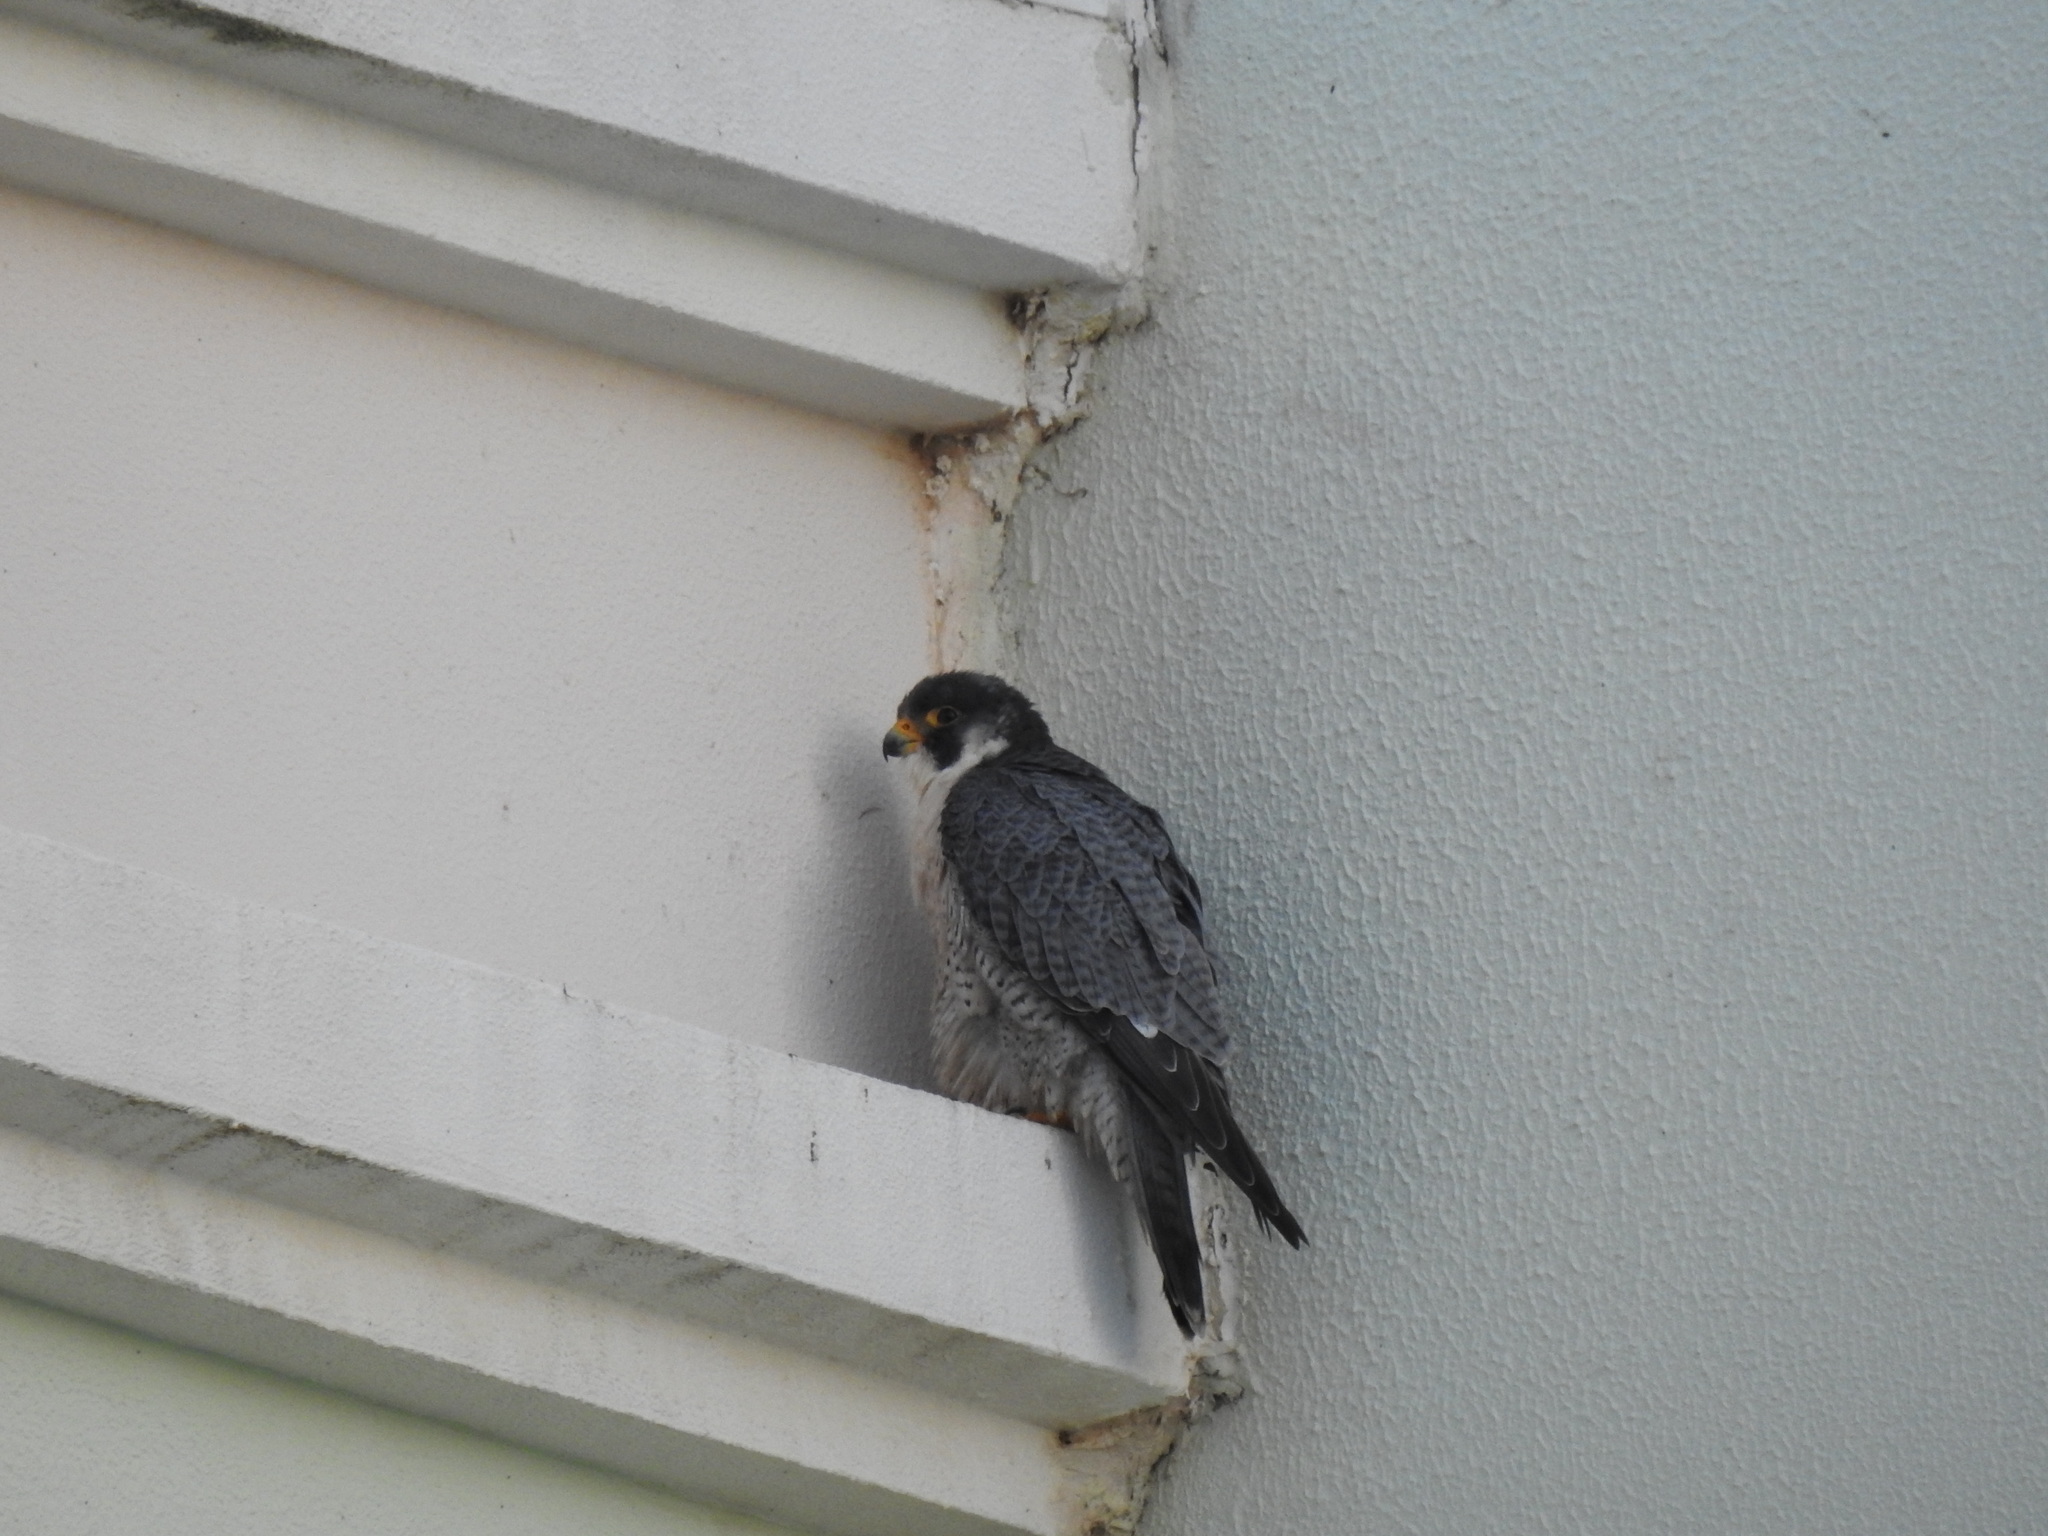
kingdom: Animalia
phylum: Chordata
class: Aves
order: Falconiformes
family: Falconidae
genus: Falco
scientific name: Falco peregrinus
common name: Peregrine falcon
